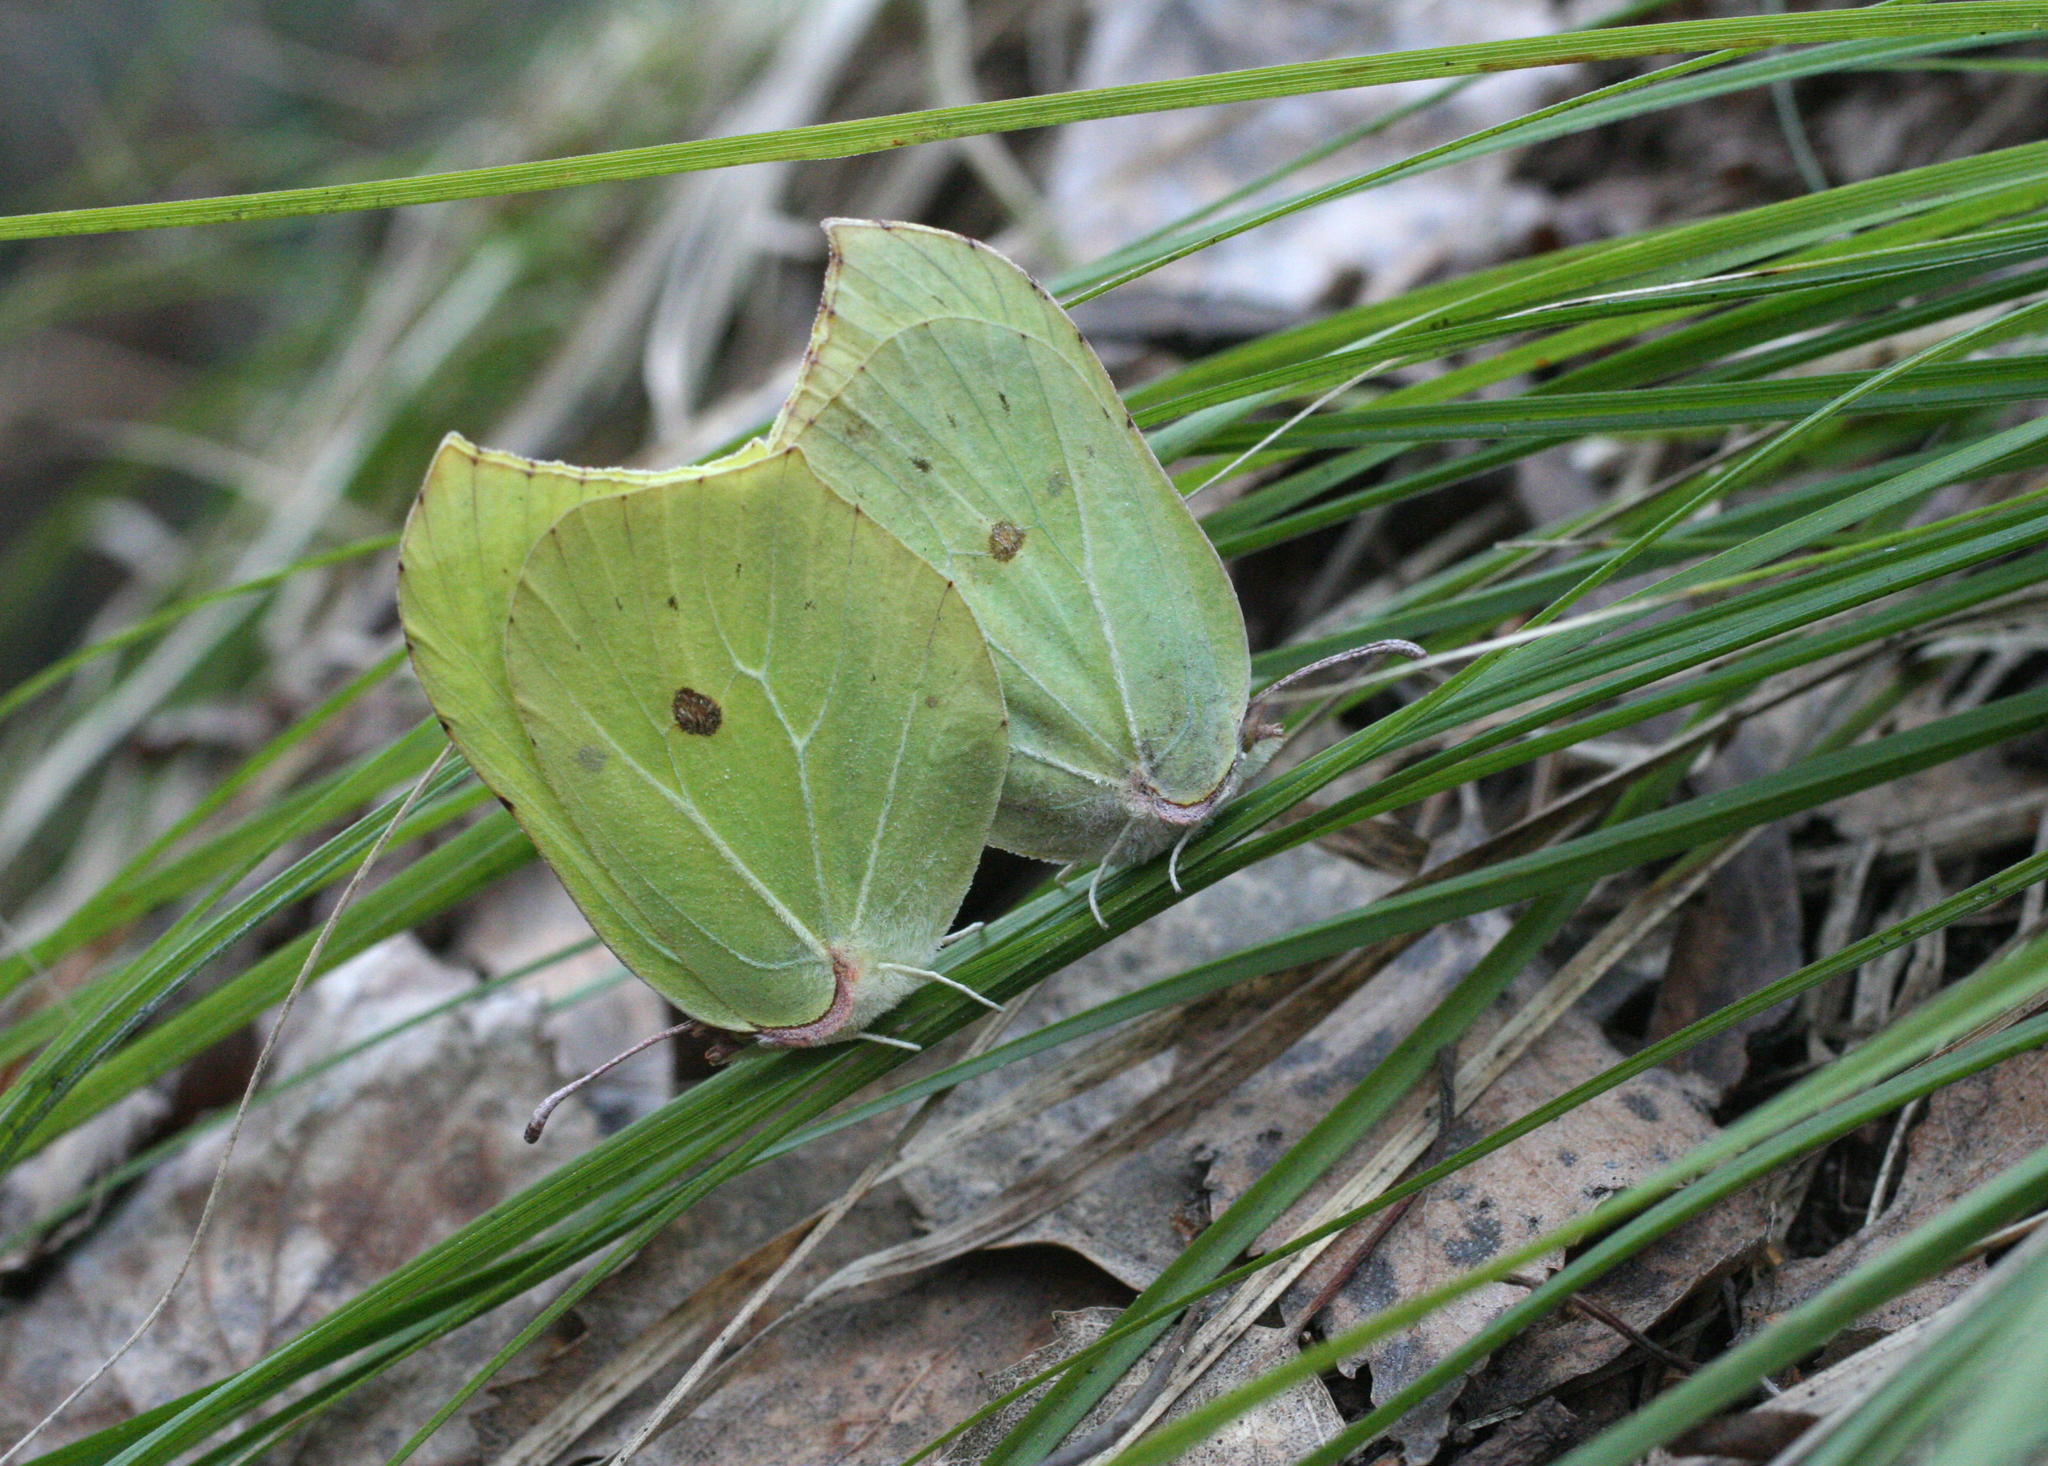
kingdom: Animalia
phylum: Arthropoda
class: Insecta
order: Lepidoptera
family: Pieridae
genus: Gonepteryx
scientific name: Gonepteryx rhamni
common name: Brimstone
